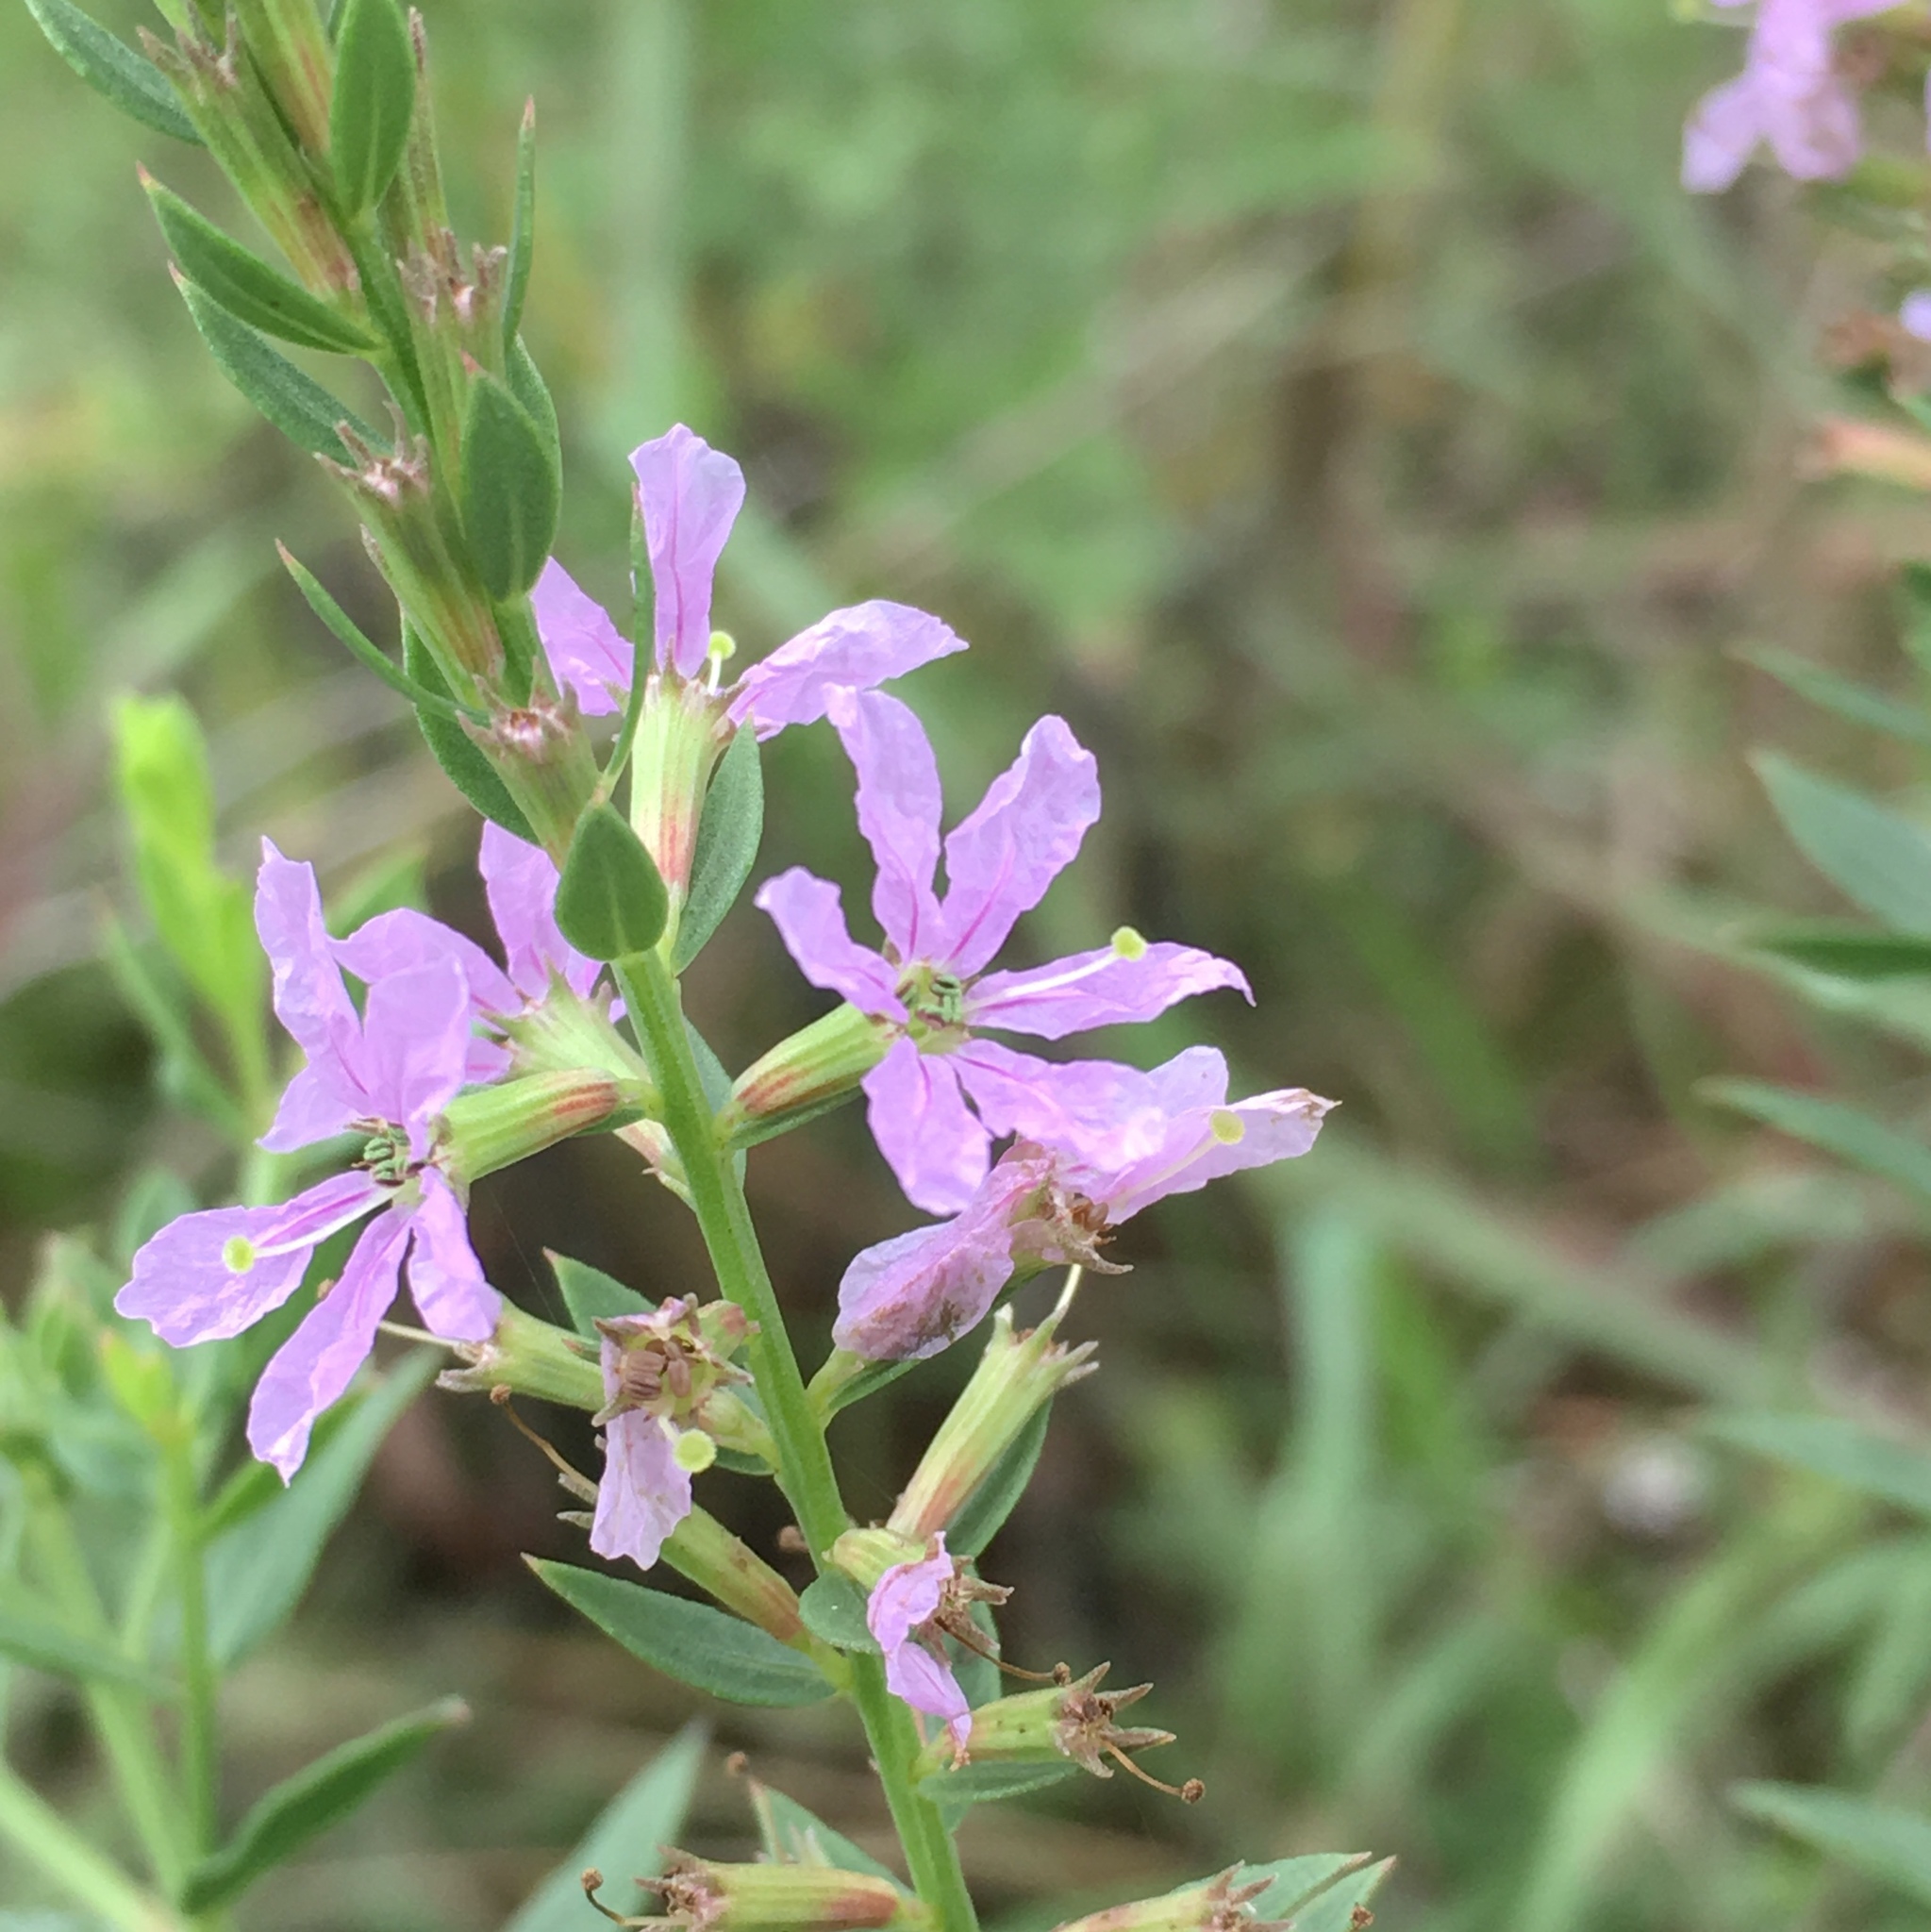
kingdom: Plantae
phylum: Tracheophyta
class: Magnoliopsida
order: Myrtales
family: Lythraceae
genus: Lythrum
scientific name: Lythrum alatum
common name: Winged loosestrife
